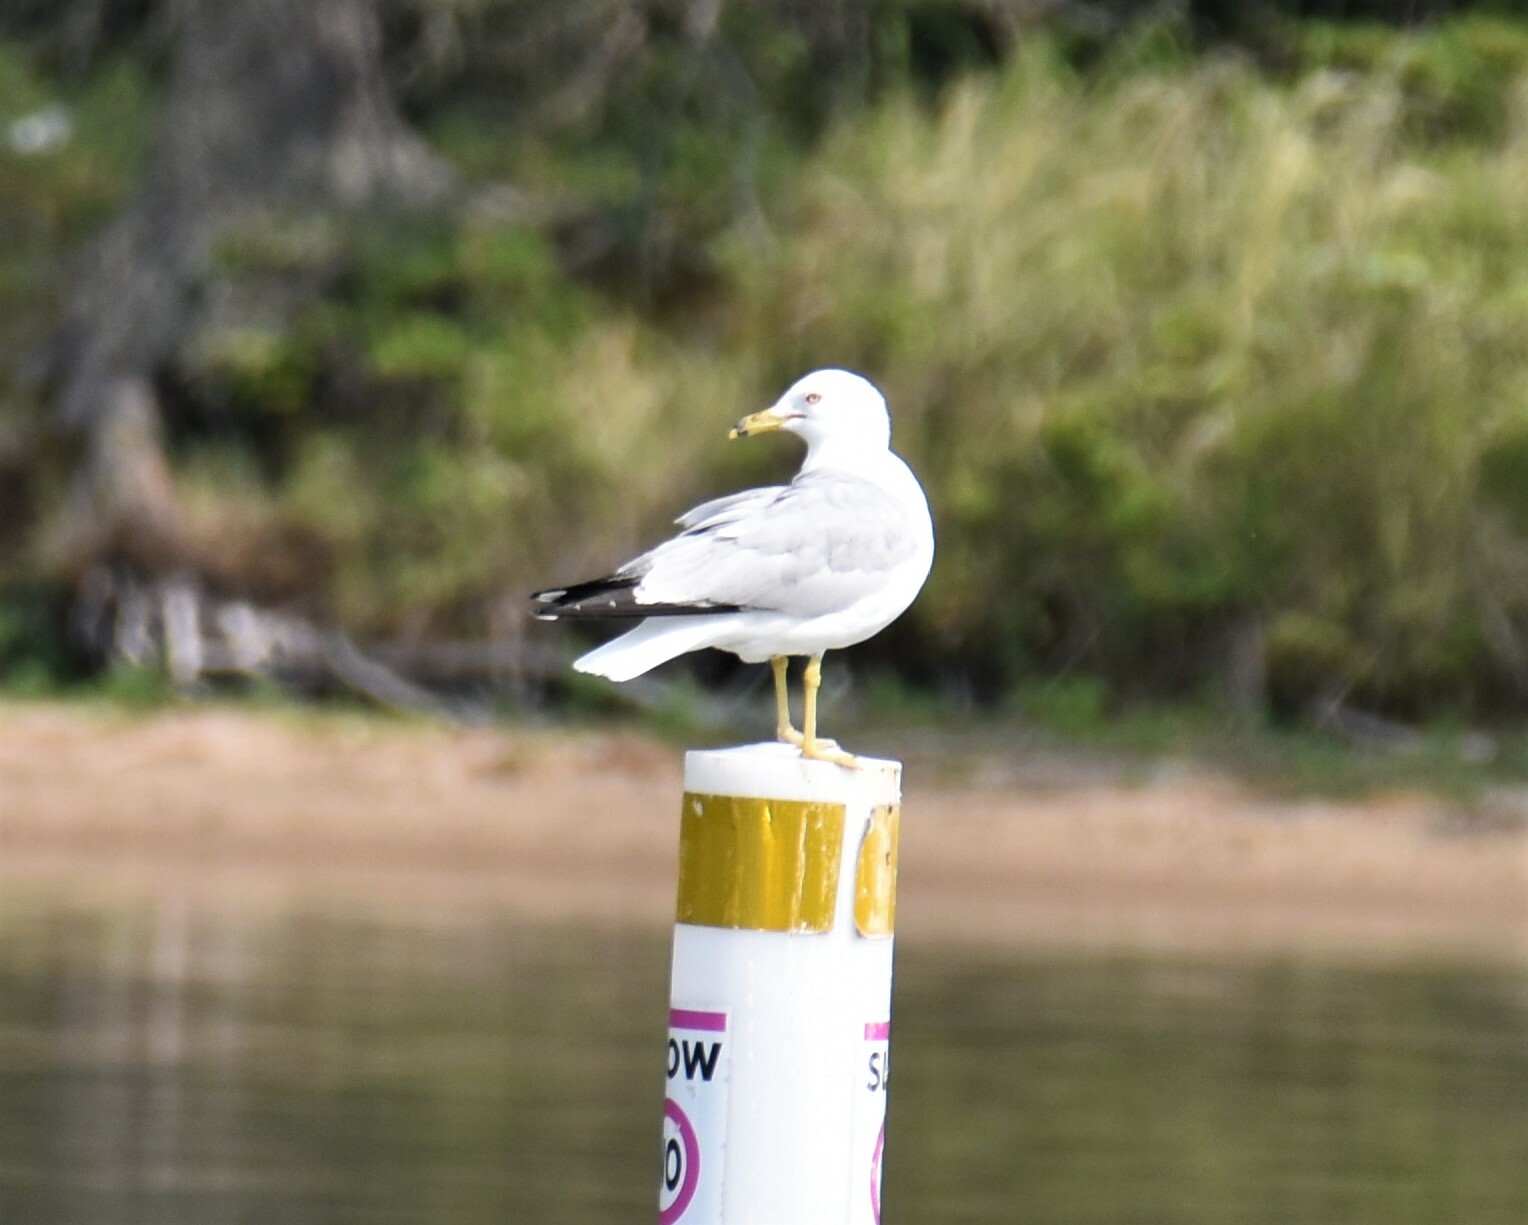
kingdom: Animalia
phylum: Chordata
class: Aves
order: Charadriiformes
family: Laridae
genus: Larus
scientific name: Larus delawarensis
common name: Ring-billed gull
